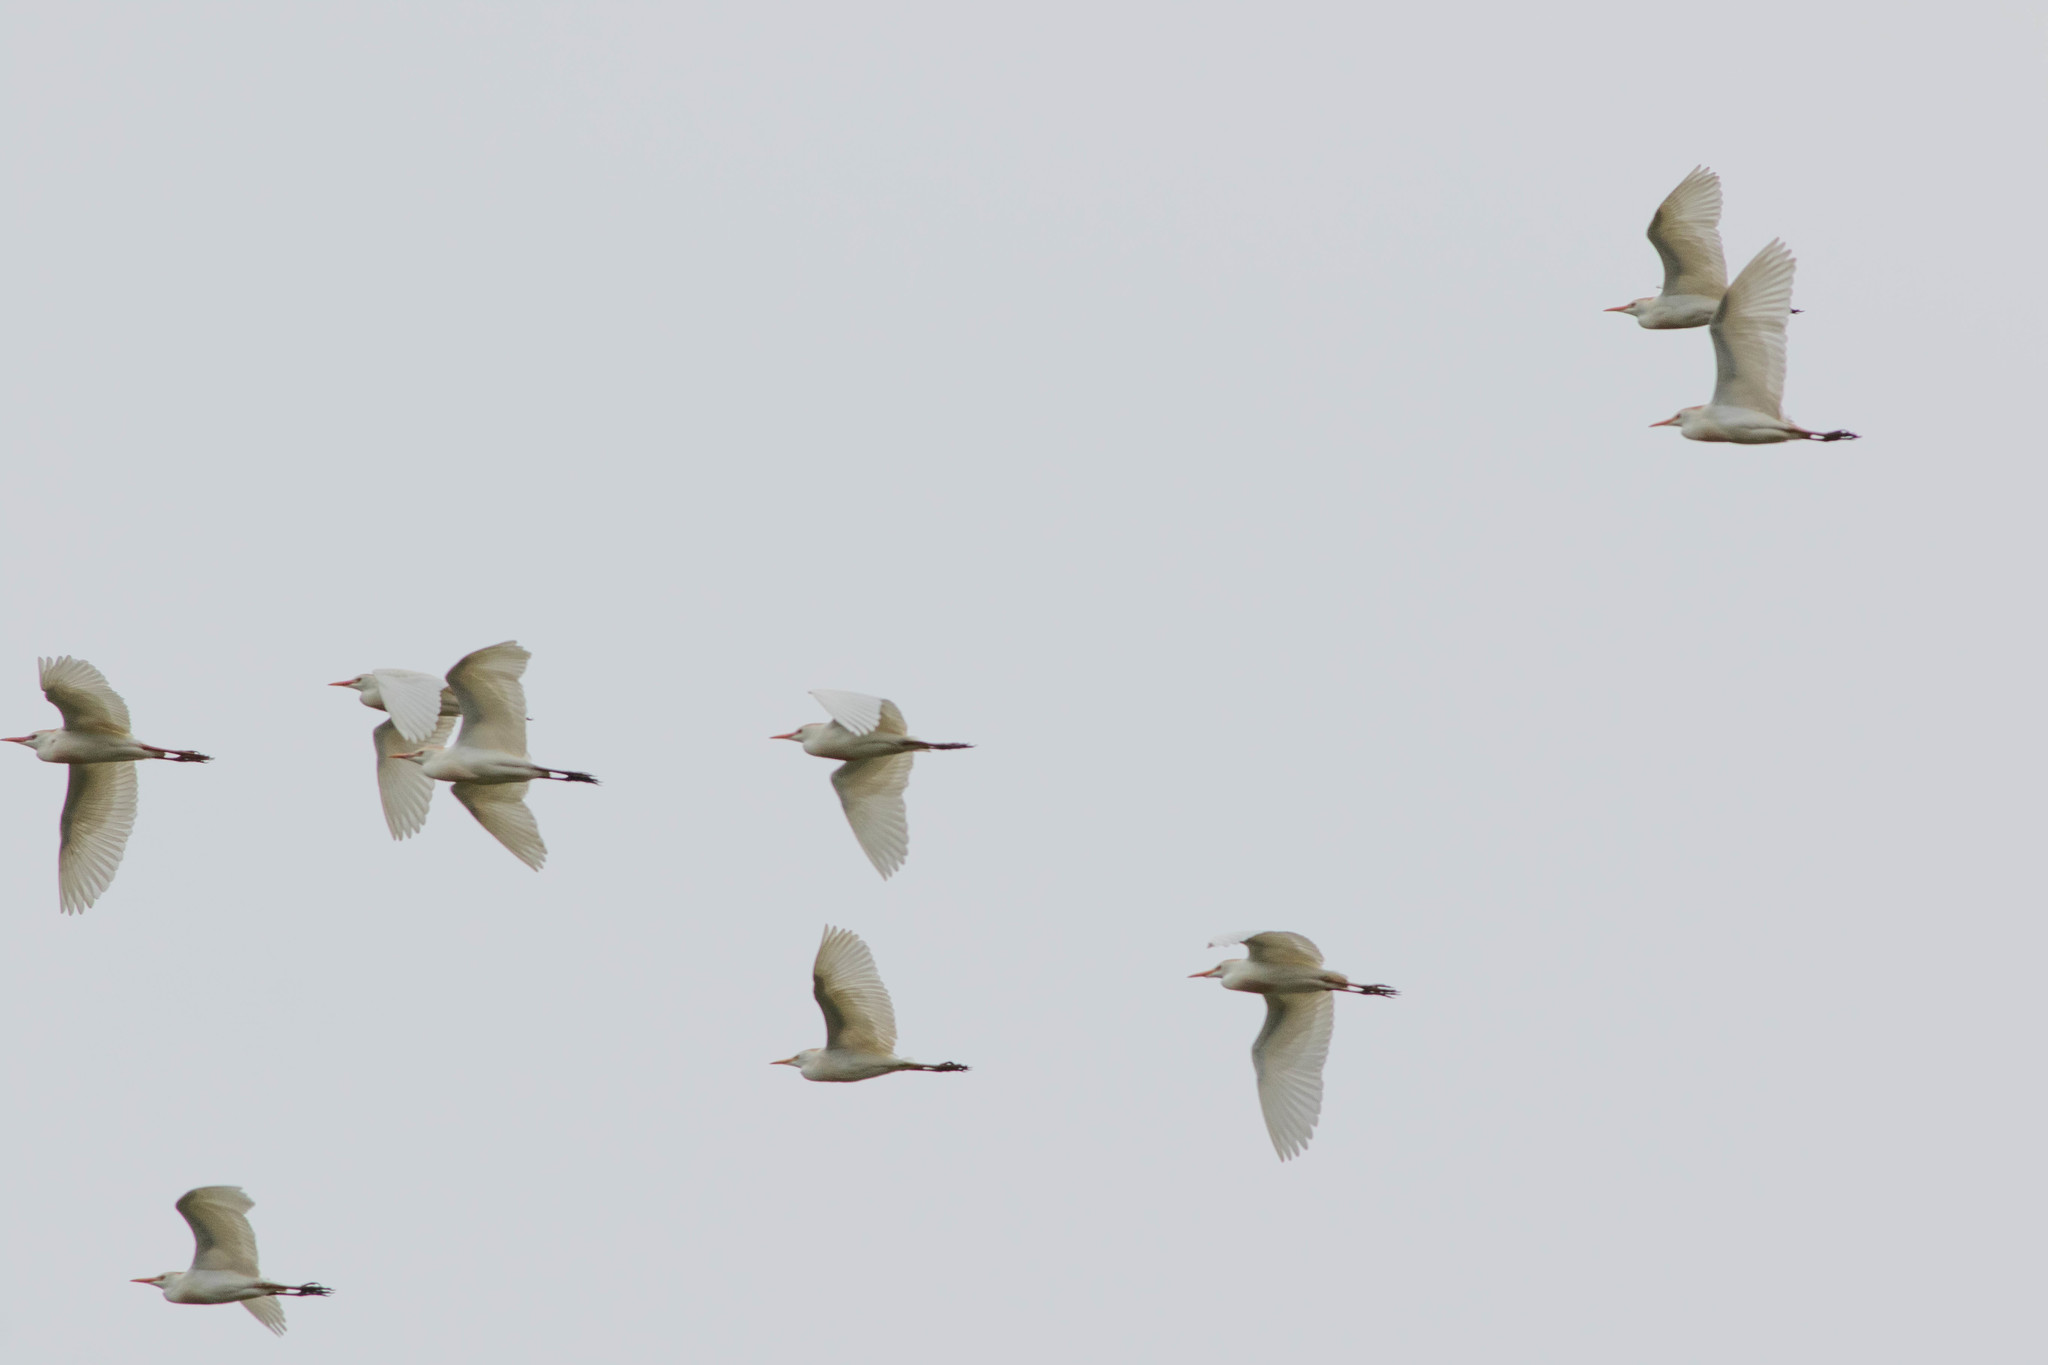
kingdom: Animalia
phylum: Chordata
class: Aves
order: Pelecaniformes
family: Ardeidae
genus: Bubulcus
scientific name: Bubulcus ibis
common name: Cattle egret
